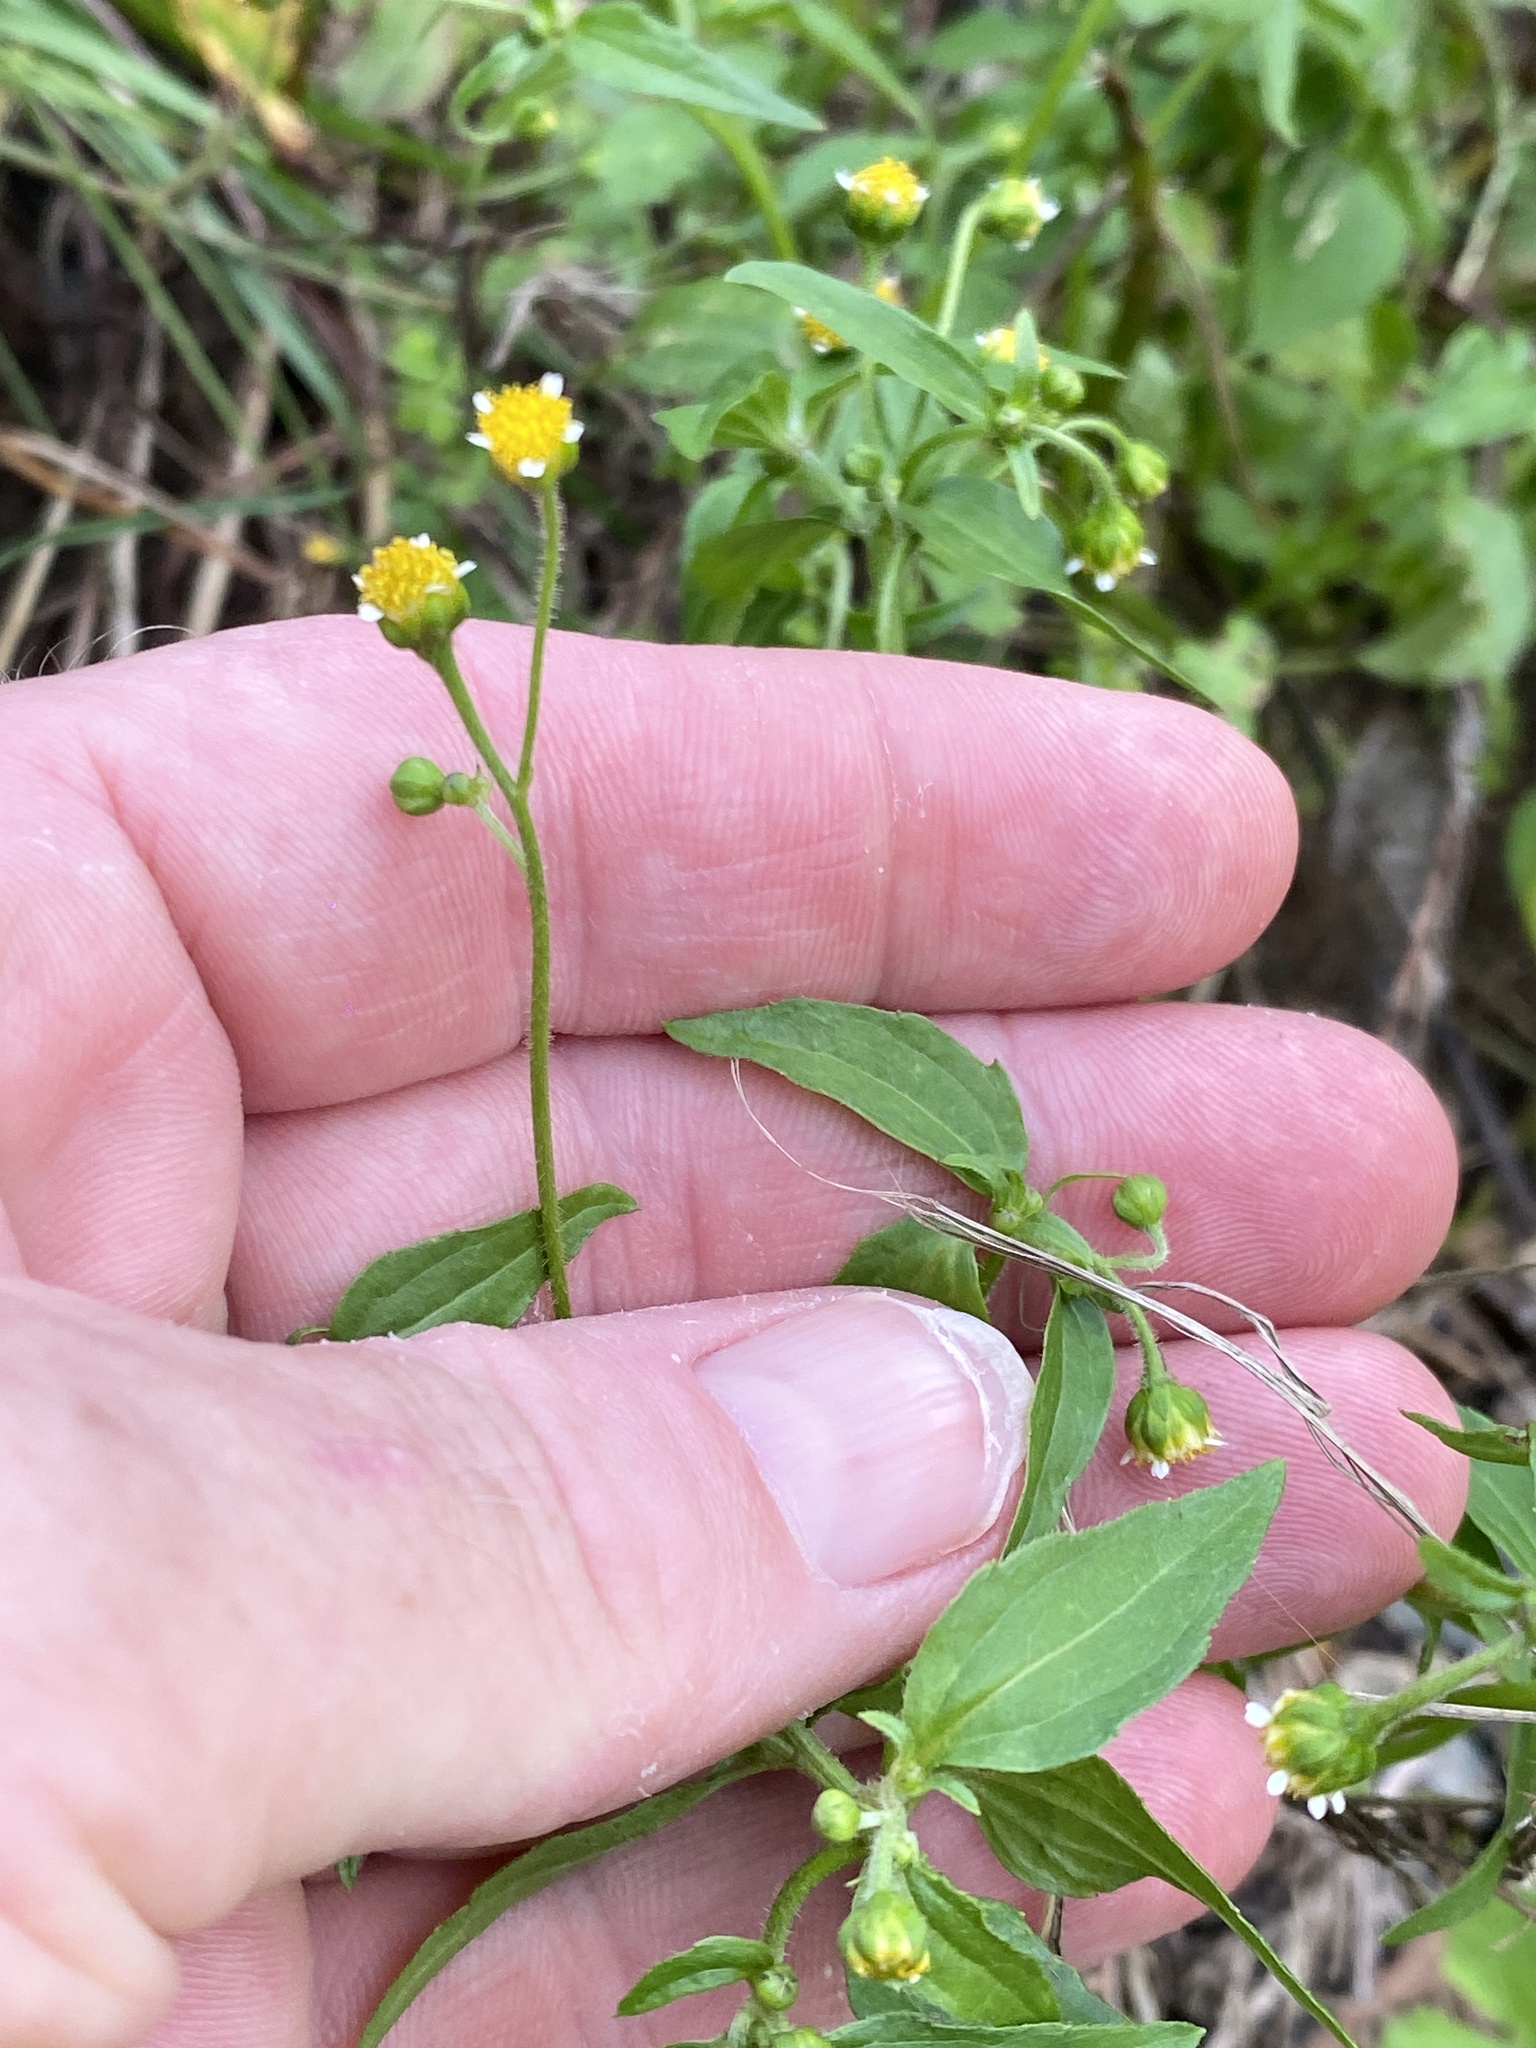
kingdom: Plantae
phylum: Tracheophyta
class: Magnoliopsida
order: Asterales
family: Asteraceae
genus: Galinsoga
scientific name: Galinsoga parviflora
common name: Gallant soldier
